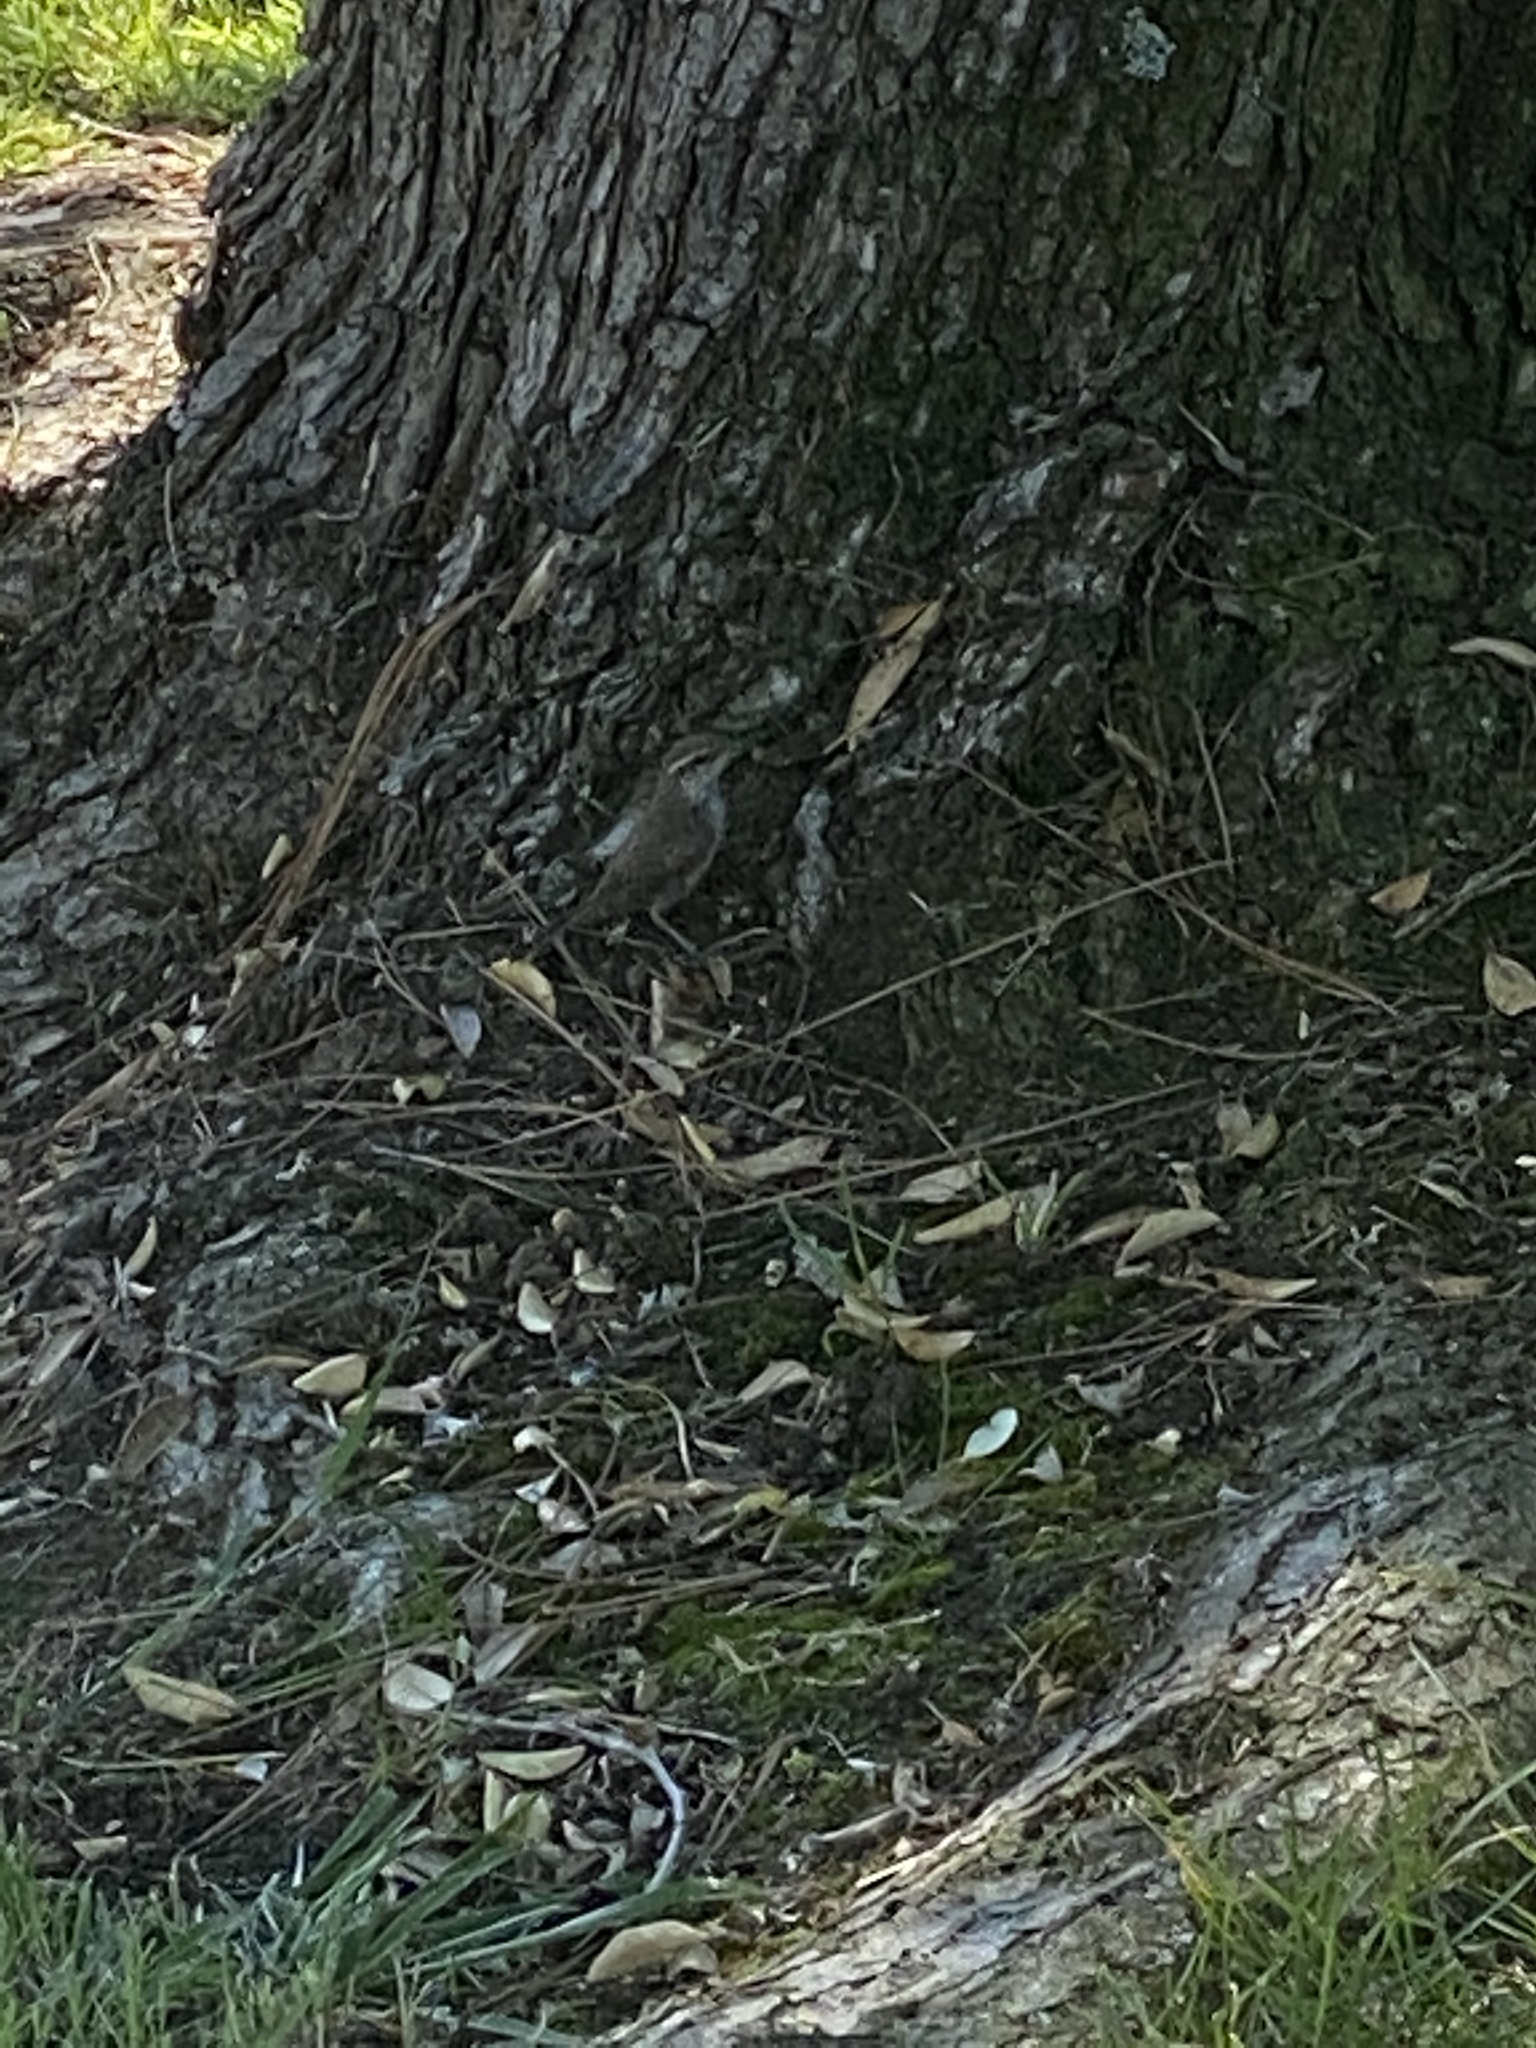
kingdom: Animalia
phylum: Chordata
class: Aves
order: Passeriformes
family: Troglodytidae
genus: Thryomanes
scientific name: Thryomanes bewickii
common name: Bewick's wren
